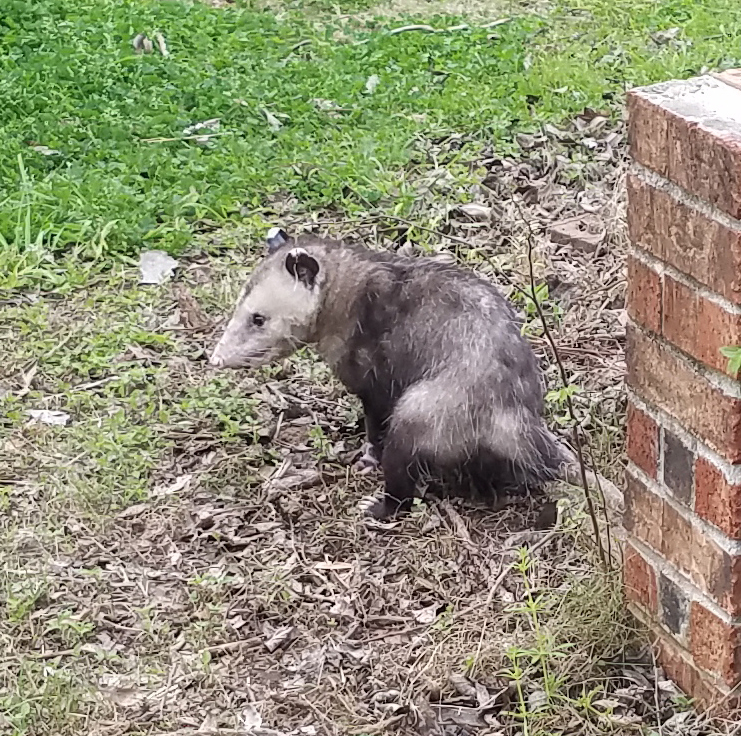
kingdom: Animalia
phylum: Chordata
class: Mammalia
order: Didelphimorphia
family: Didelphidae
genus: Didelphis
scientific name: Didelphis virginiana
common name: Virginia opossum
